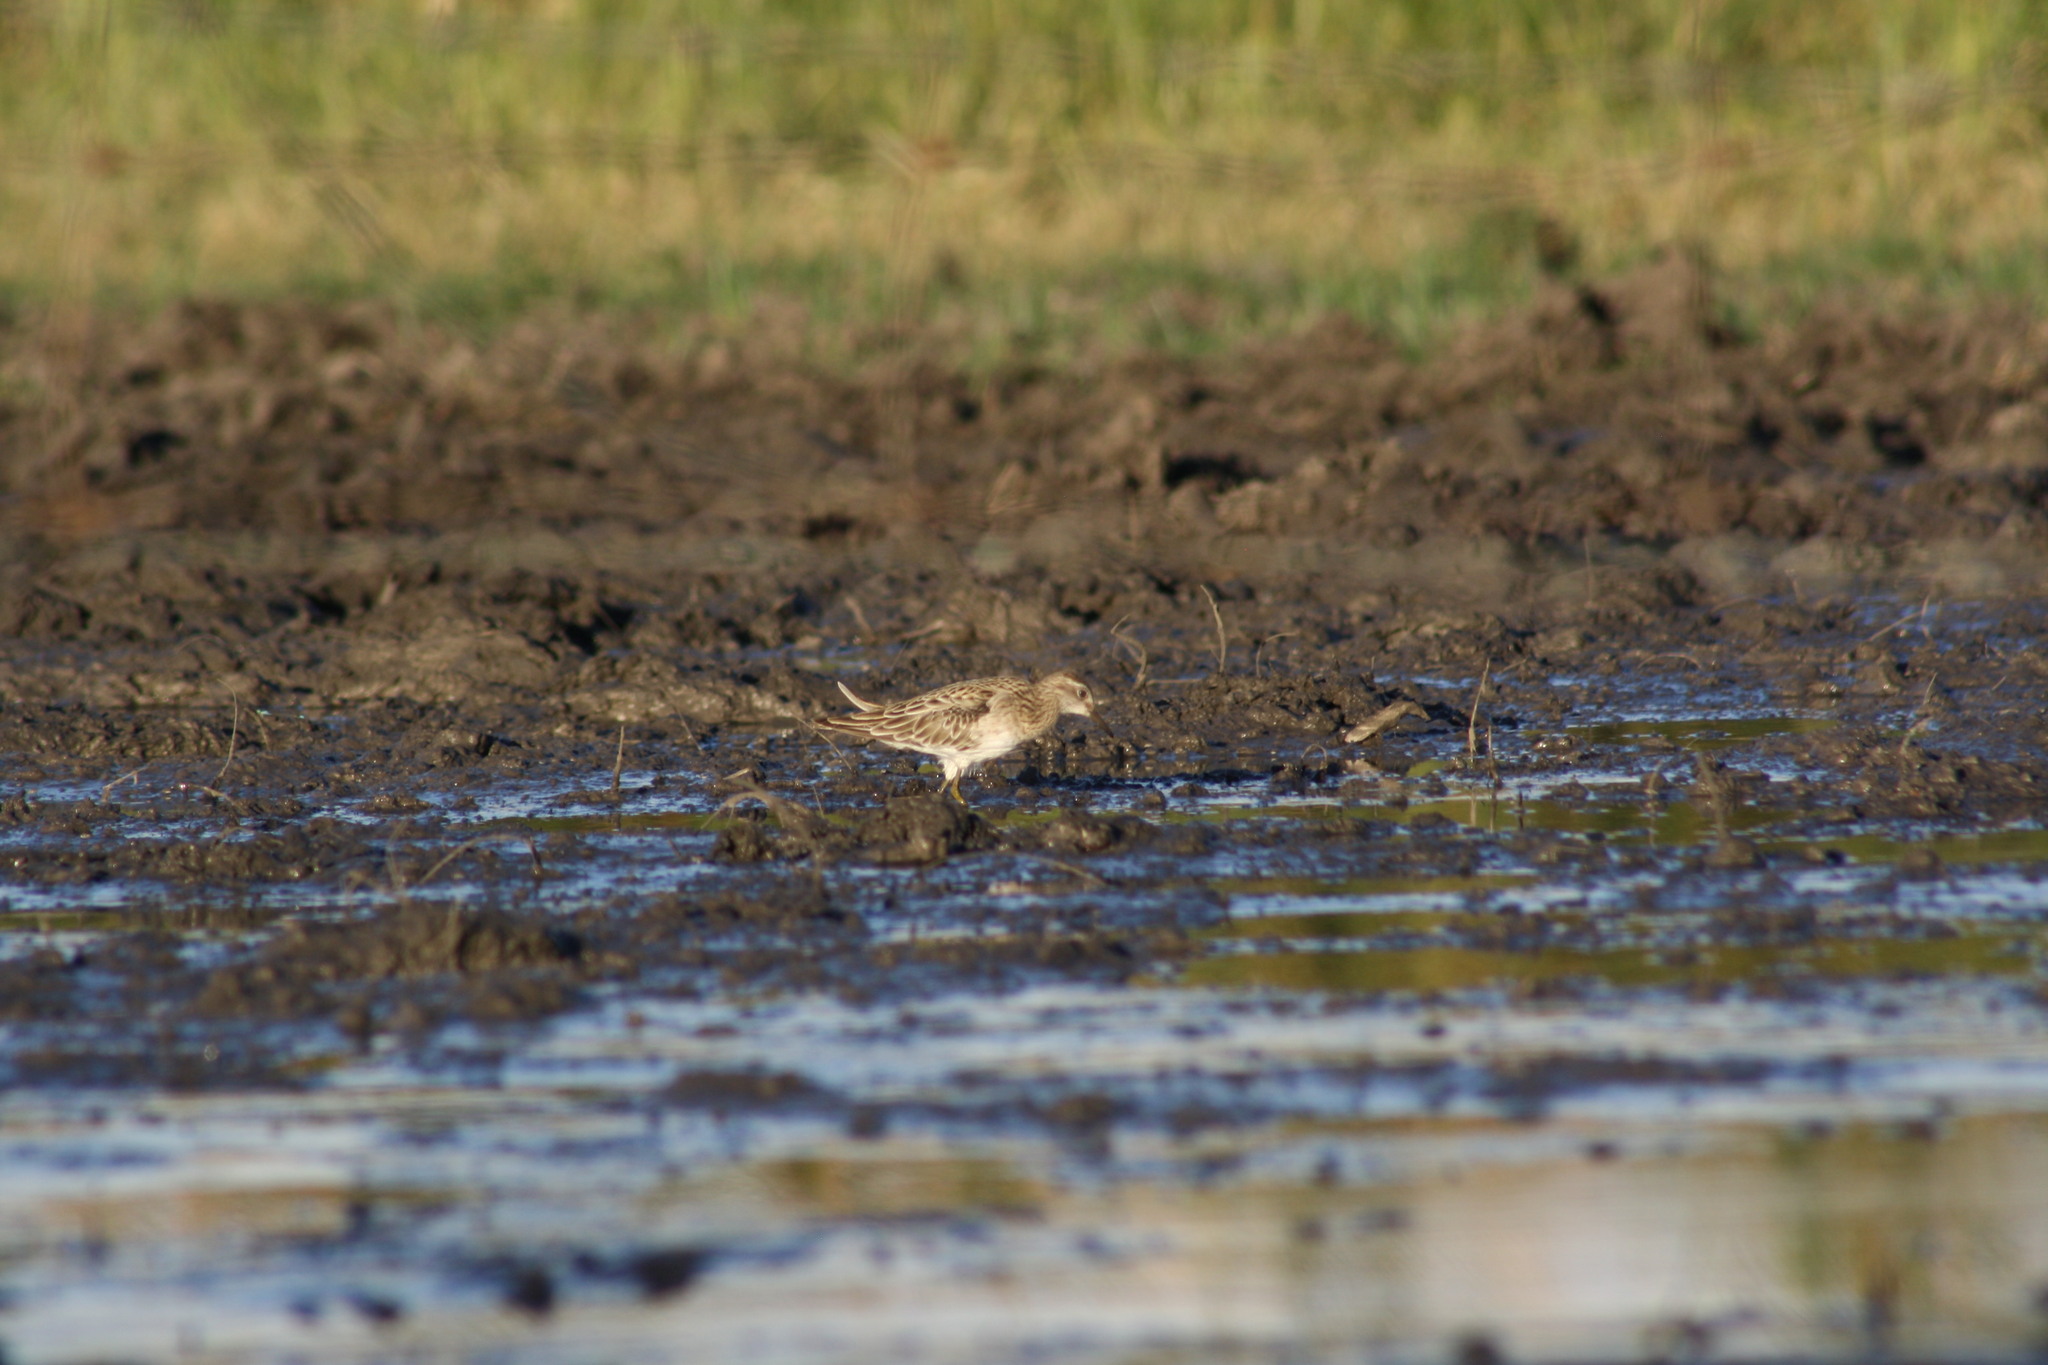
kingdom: Animalia
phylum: Chordata
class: Aves
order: Charadriiformes
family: Scolopacidae
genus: Calidris
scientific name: Calidris acuminata
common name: Sharp-tailed sandpiper
